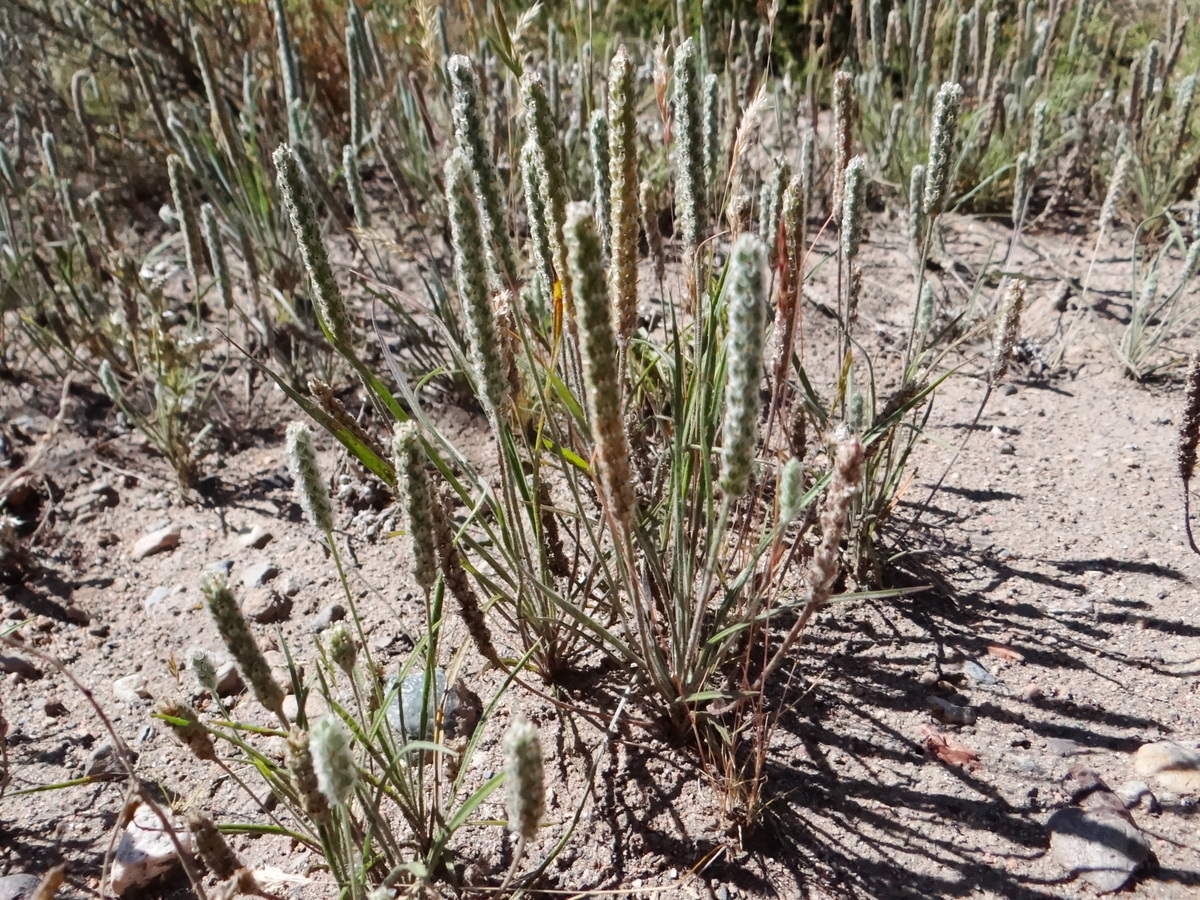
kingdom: Plantae
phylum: Tracheophyta
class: Magnoliopsida
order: Lamiales
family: Plantaginaceae
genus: Plantago
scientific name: Plantago patagonica
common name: Patagonia indian-wheat
